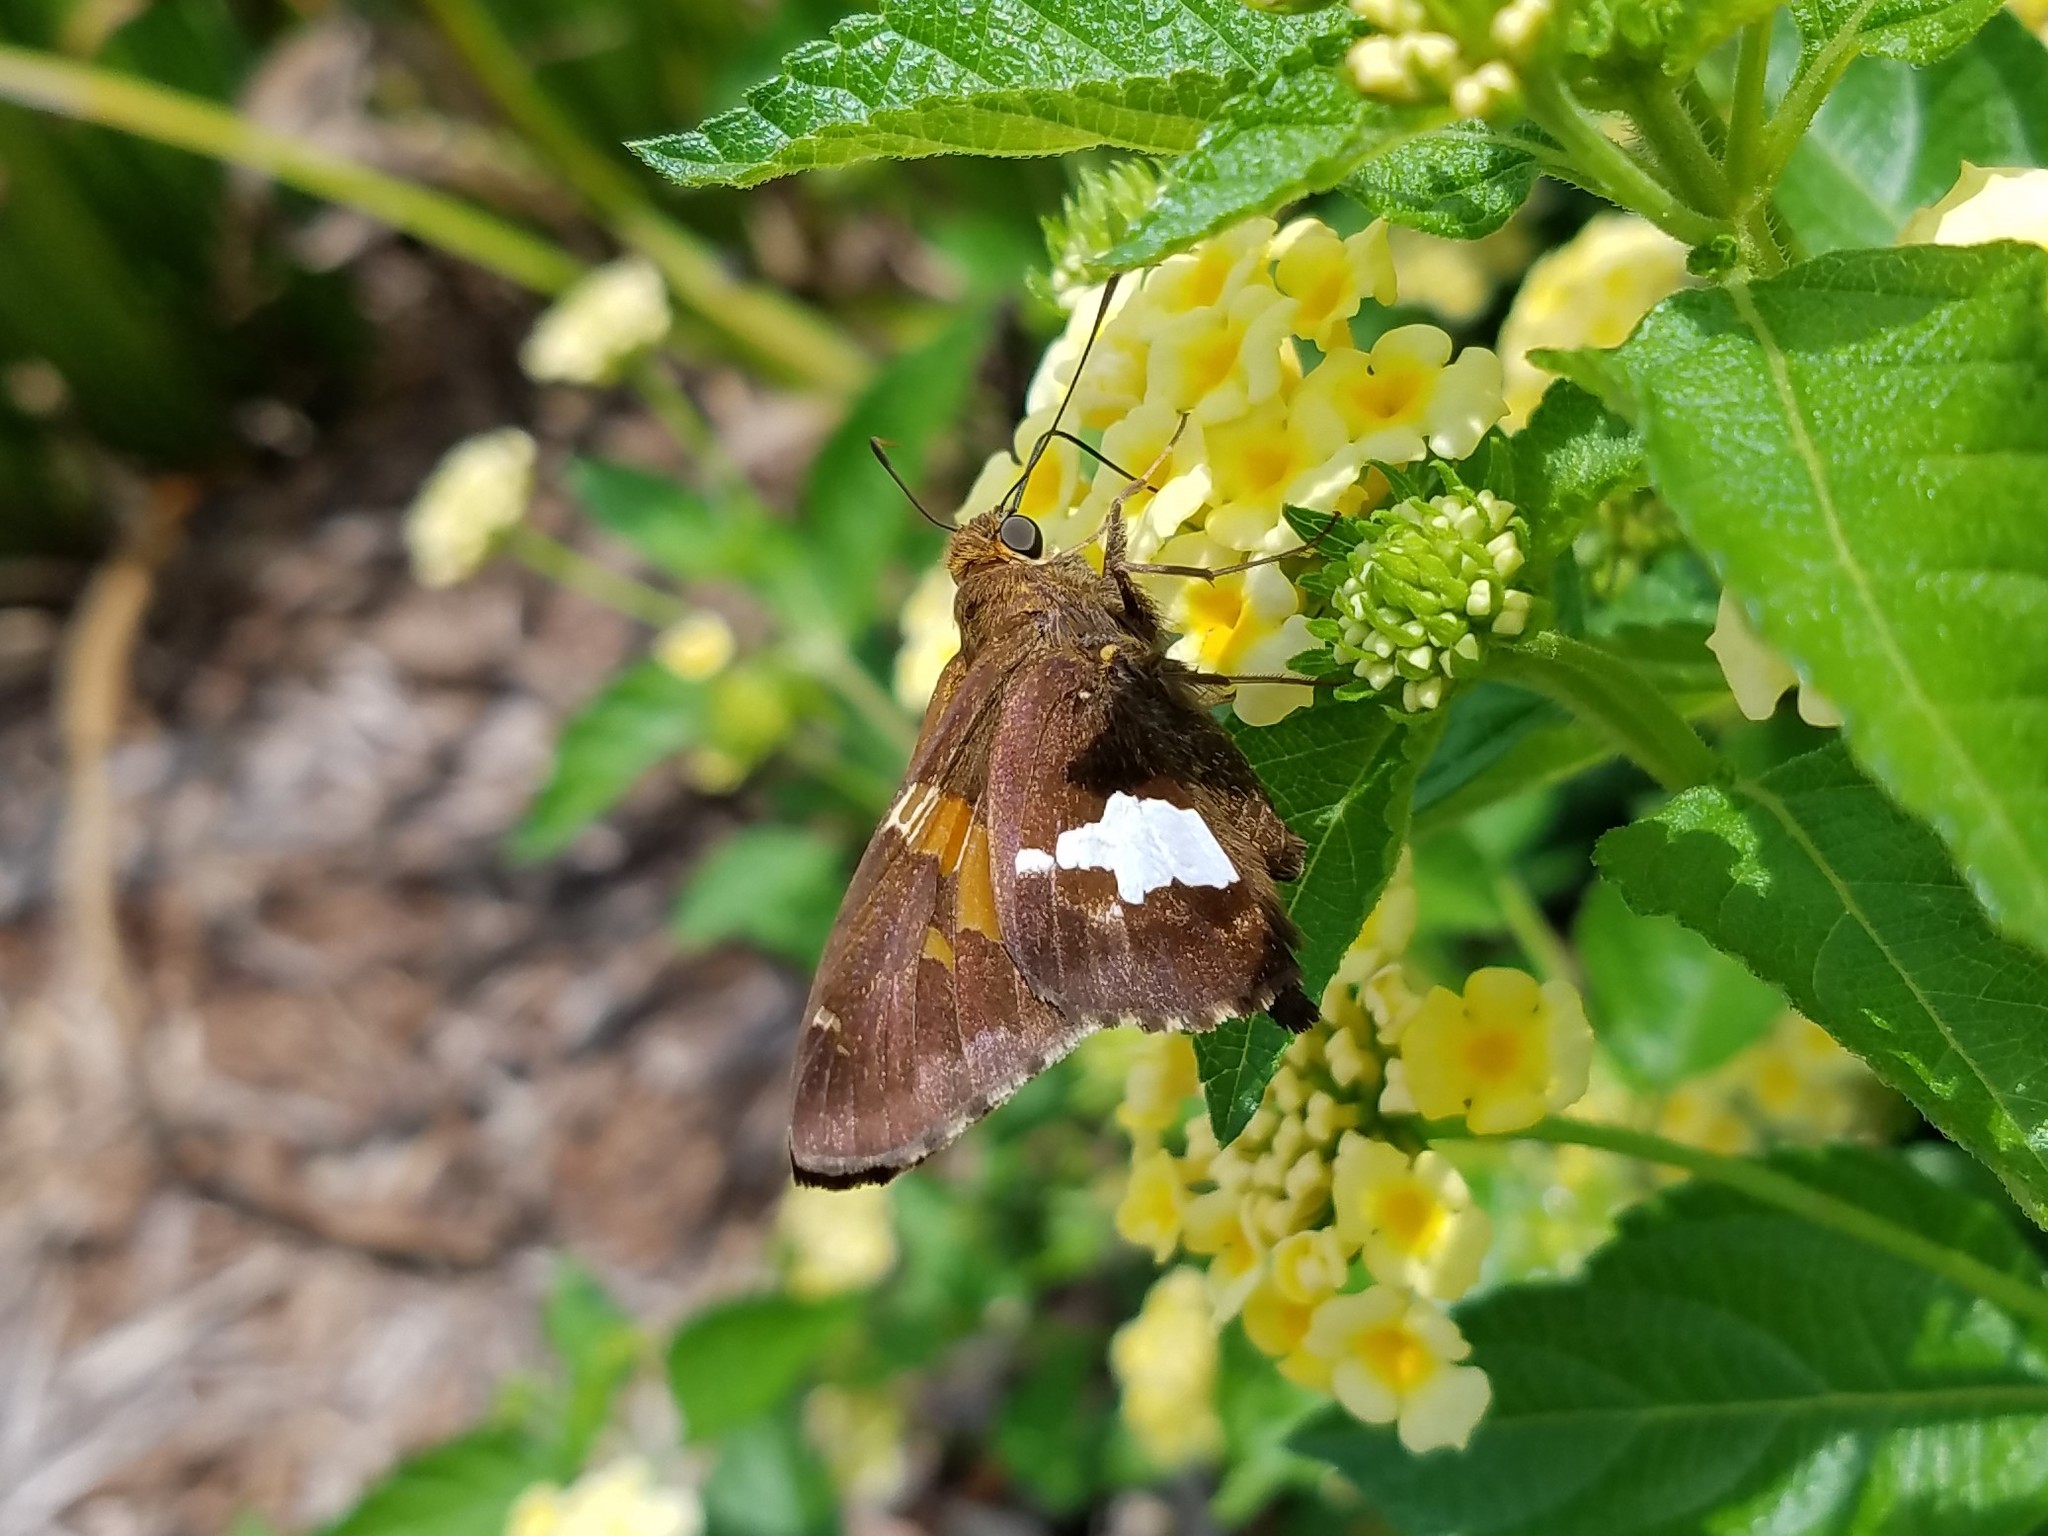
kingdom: Animalia
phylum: Arthropoda
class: Insecta
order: Lepidoptera
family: Hesperiidae
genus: Epargyreus
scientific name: Epargyreus clarus
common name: Silver-spotted skipper
